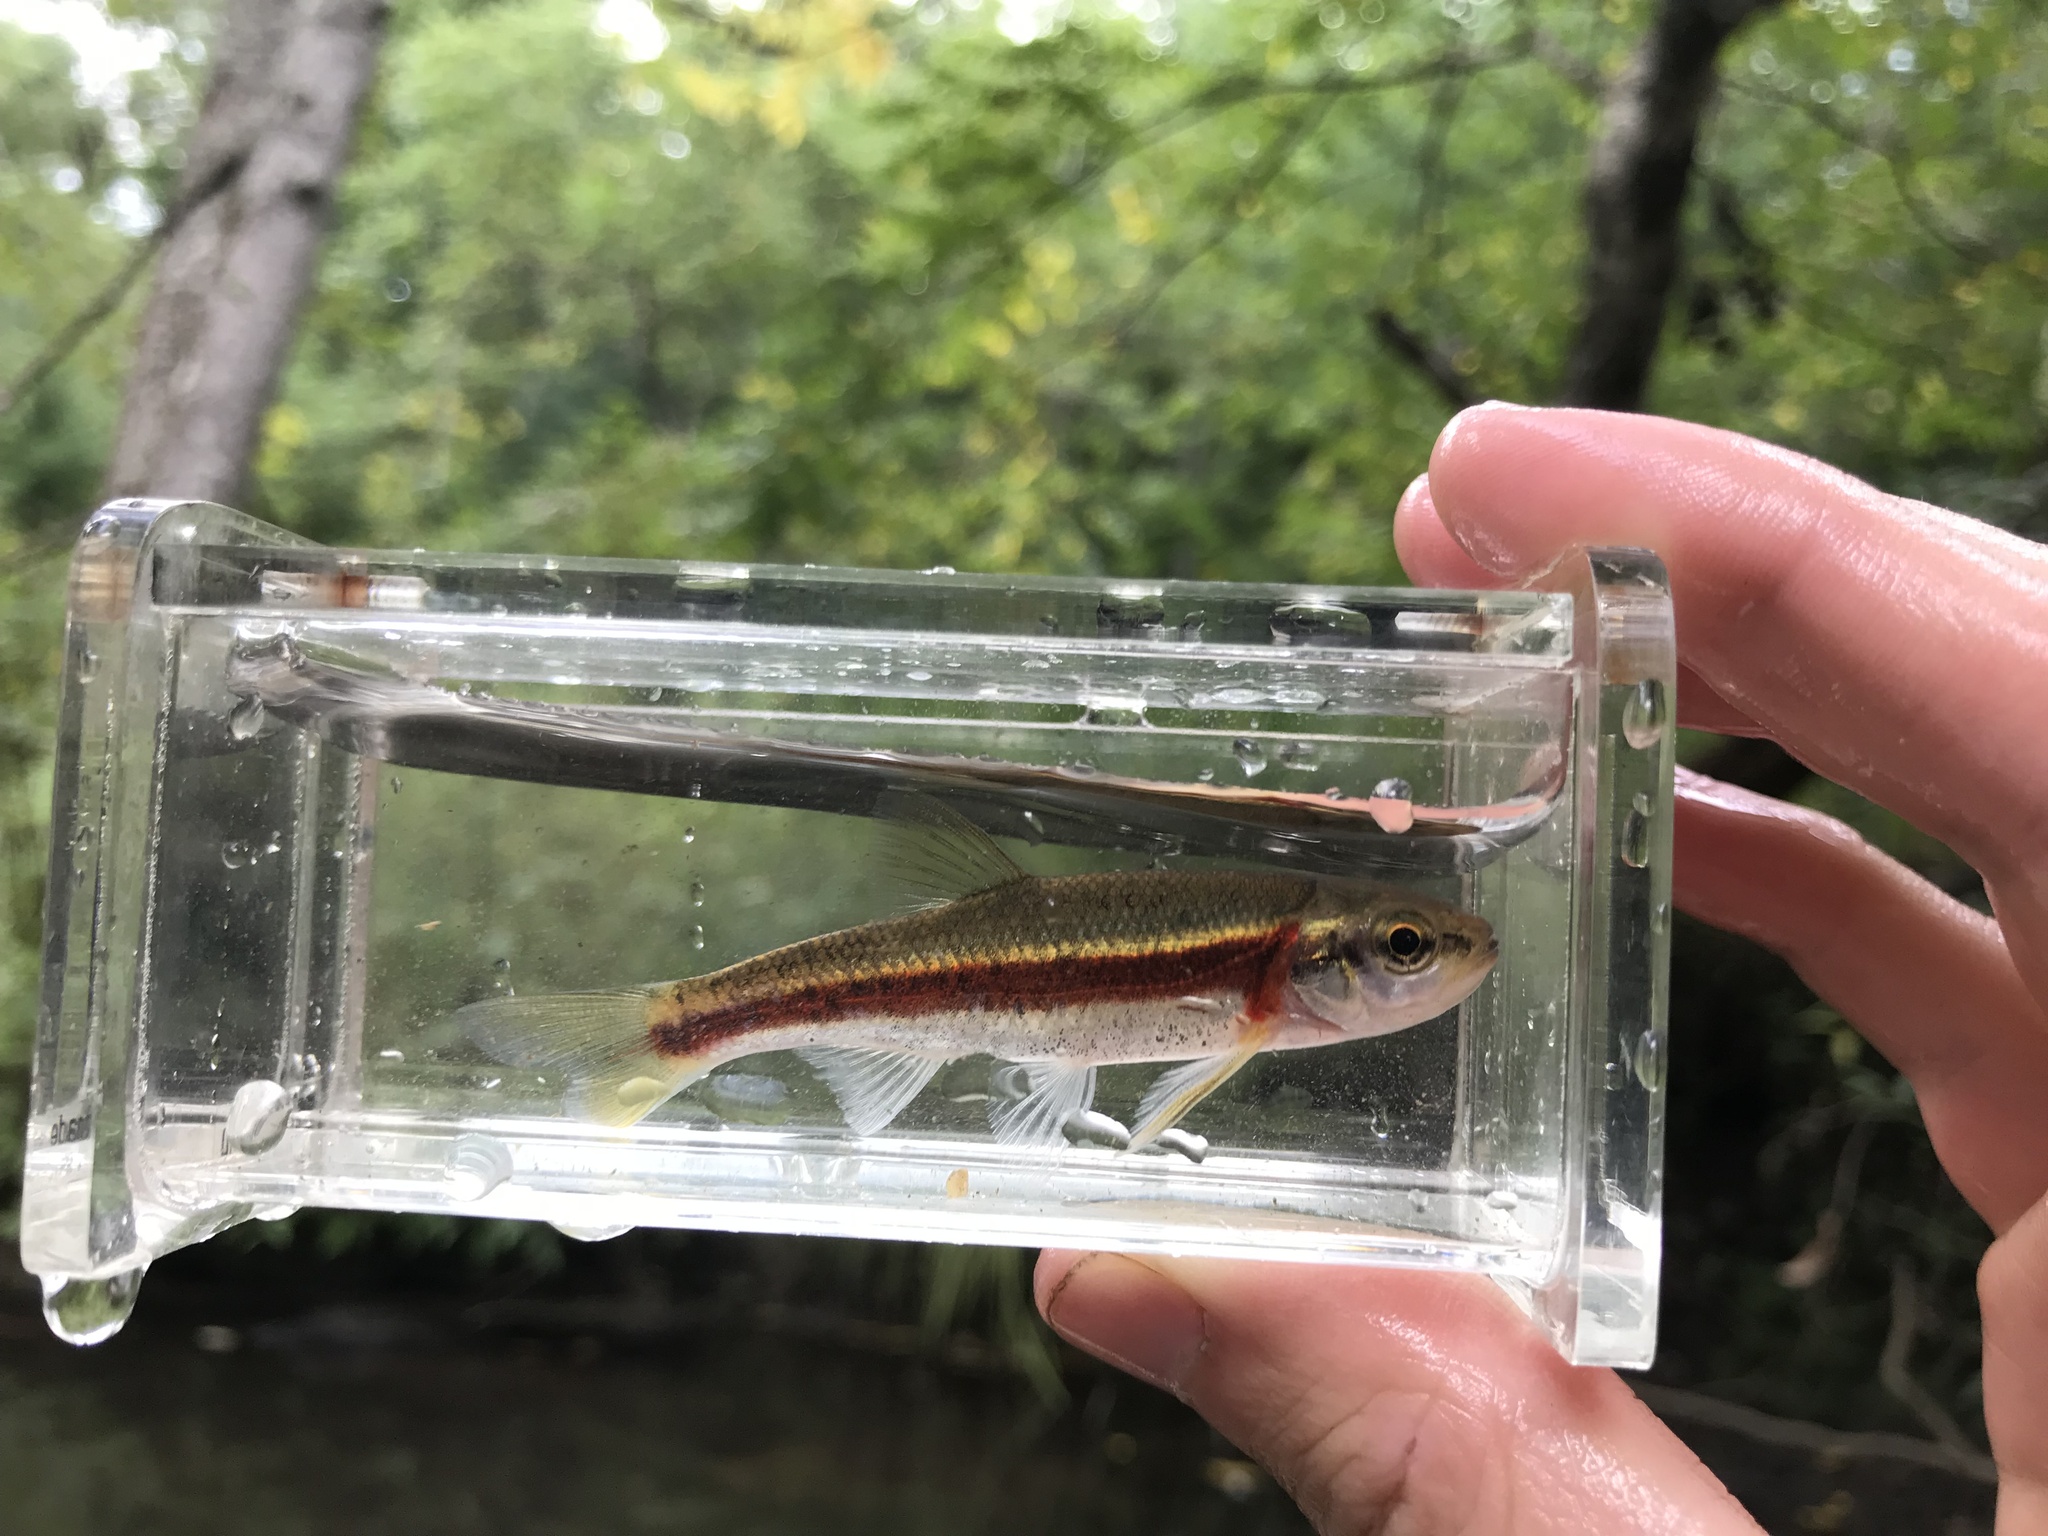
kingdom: Animalia
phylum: Chordata
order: Cypriniformes
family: Cyprinidae
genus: Clinostomus
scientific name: Clinostomus funduloides
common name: Rosyside dace
